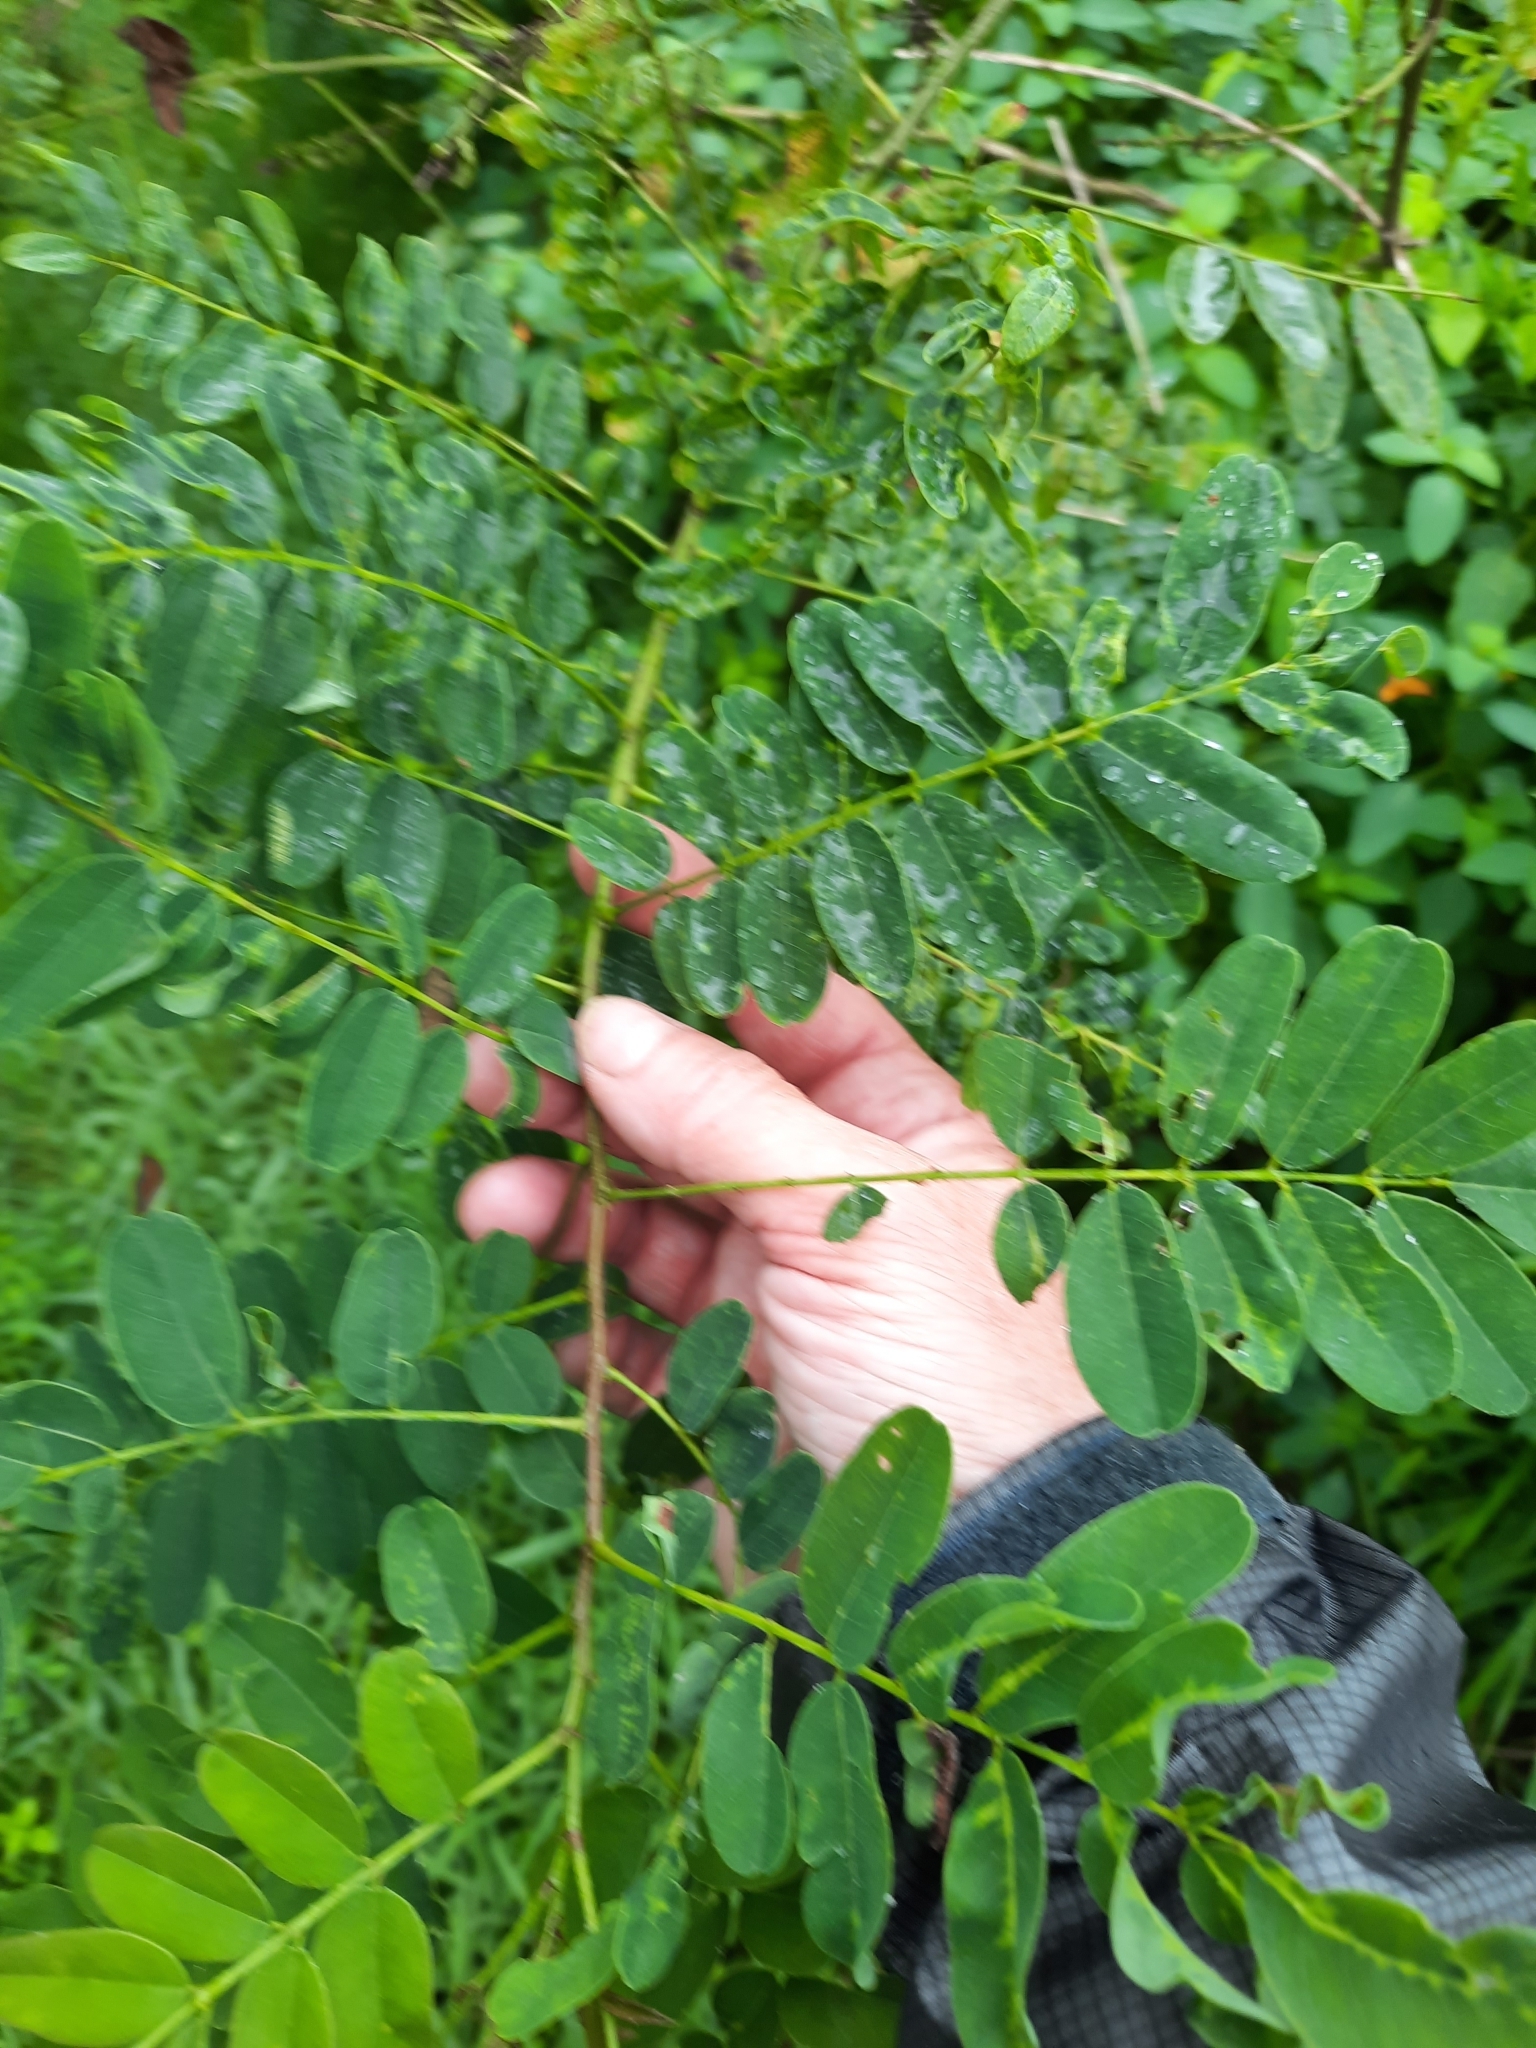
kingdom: Plantae
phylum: Tracheophyta
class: Magnoliopsida
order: Fabales
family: Fabaceae
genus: Amorpha
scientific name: Amorpha fruticosa
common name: False indigo
